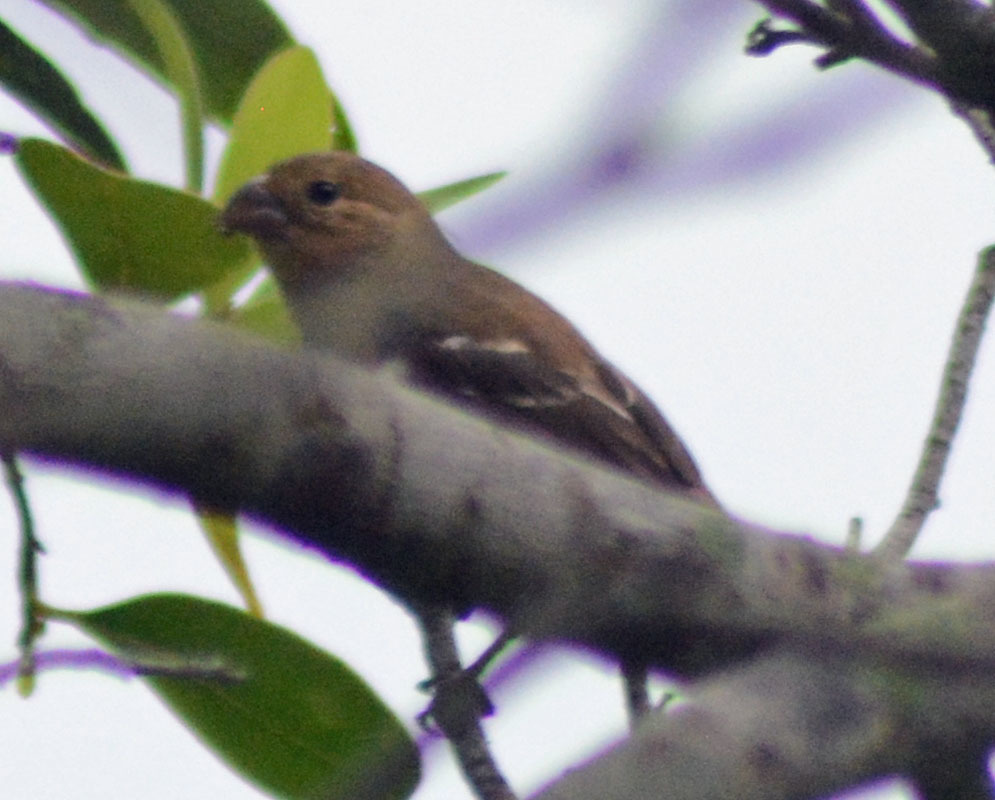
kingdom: Animalia
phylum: Chordata
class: Aves
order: Passeriformes
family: Thraupidae
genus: Sporophila
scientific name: Sporophila morelleti
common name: Morelet's seedeater
